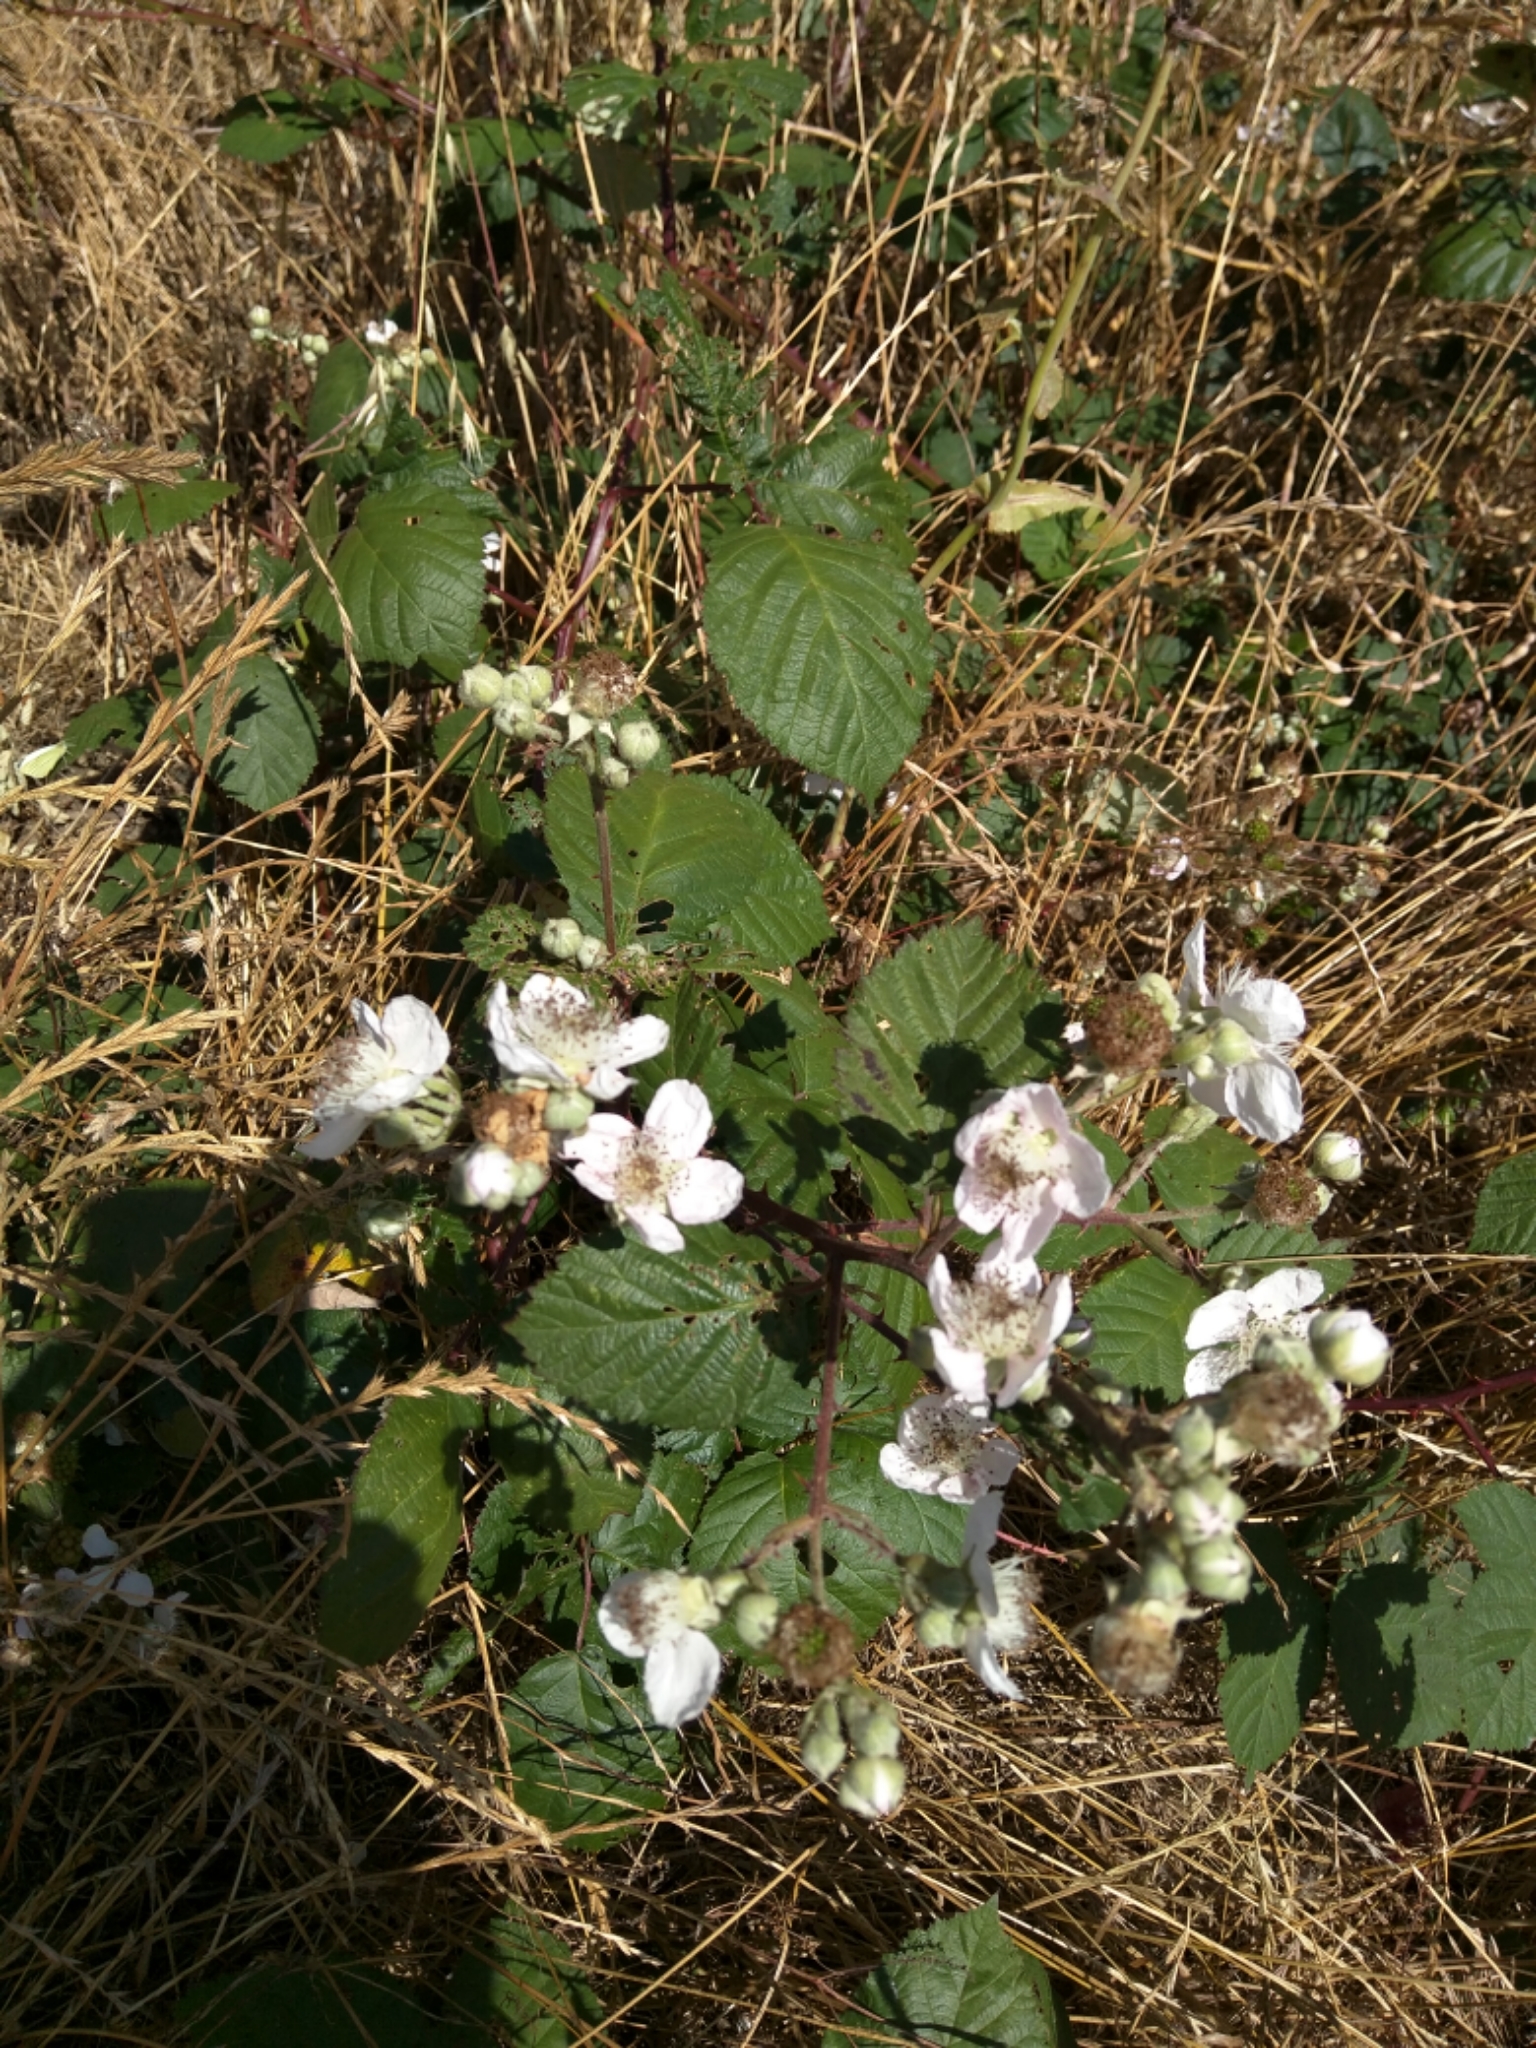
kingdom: Plantae
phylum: Tracheophyta
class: Magnoliopsida
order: Rosales
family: Rosaceae
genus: Rubus
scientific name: Rubus armeniacus
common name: Himalayan blackberry
